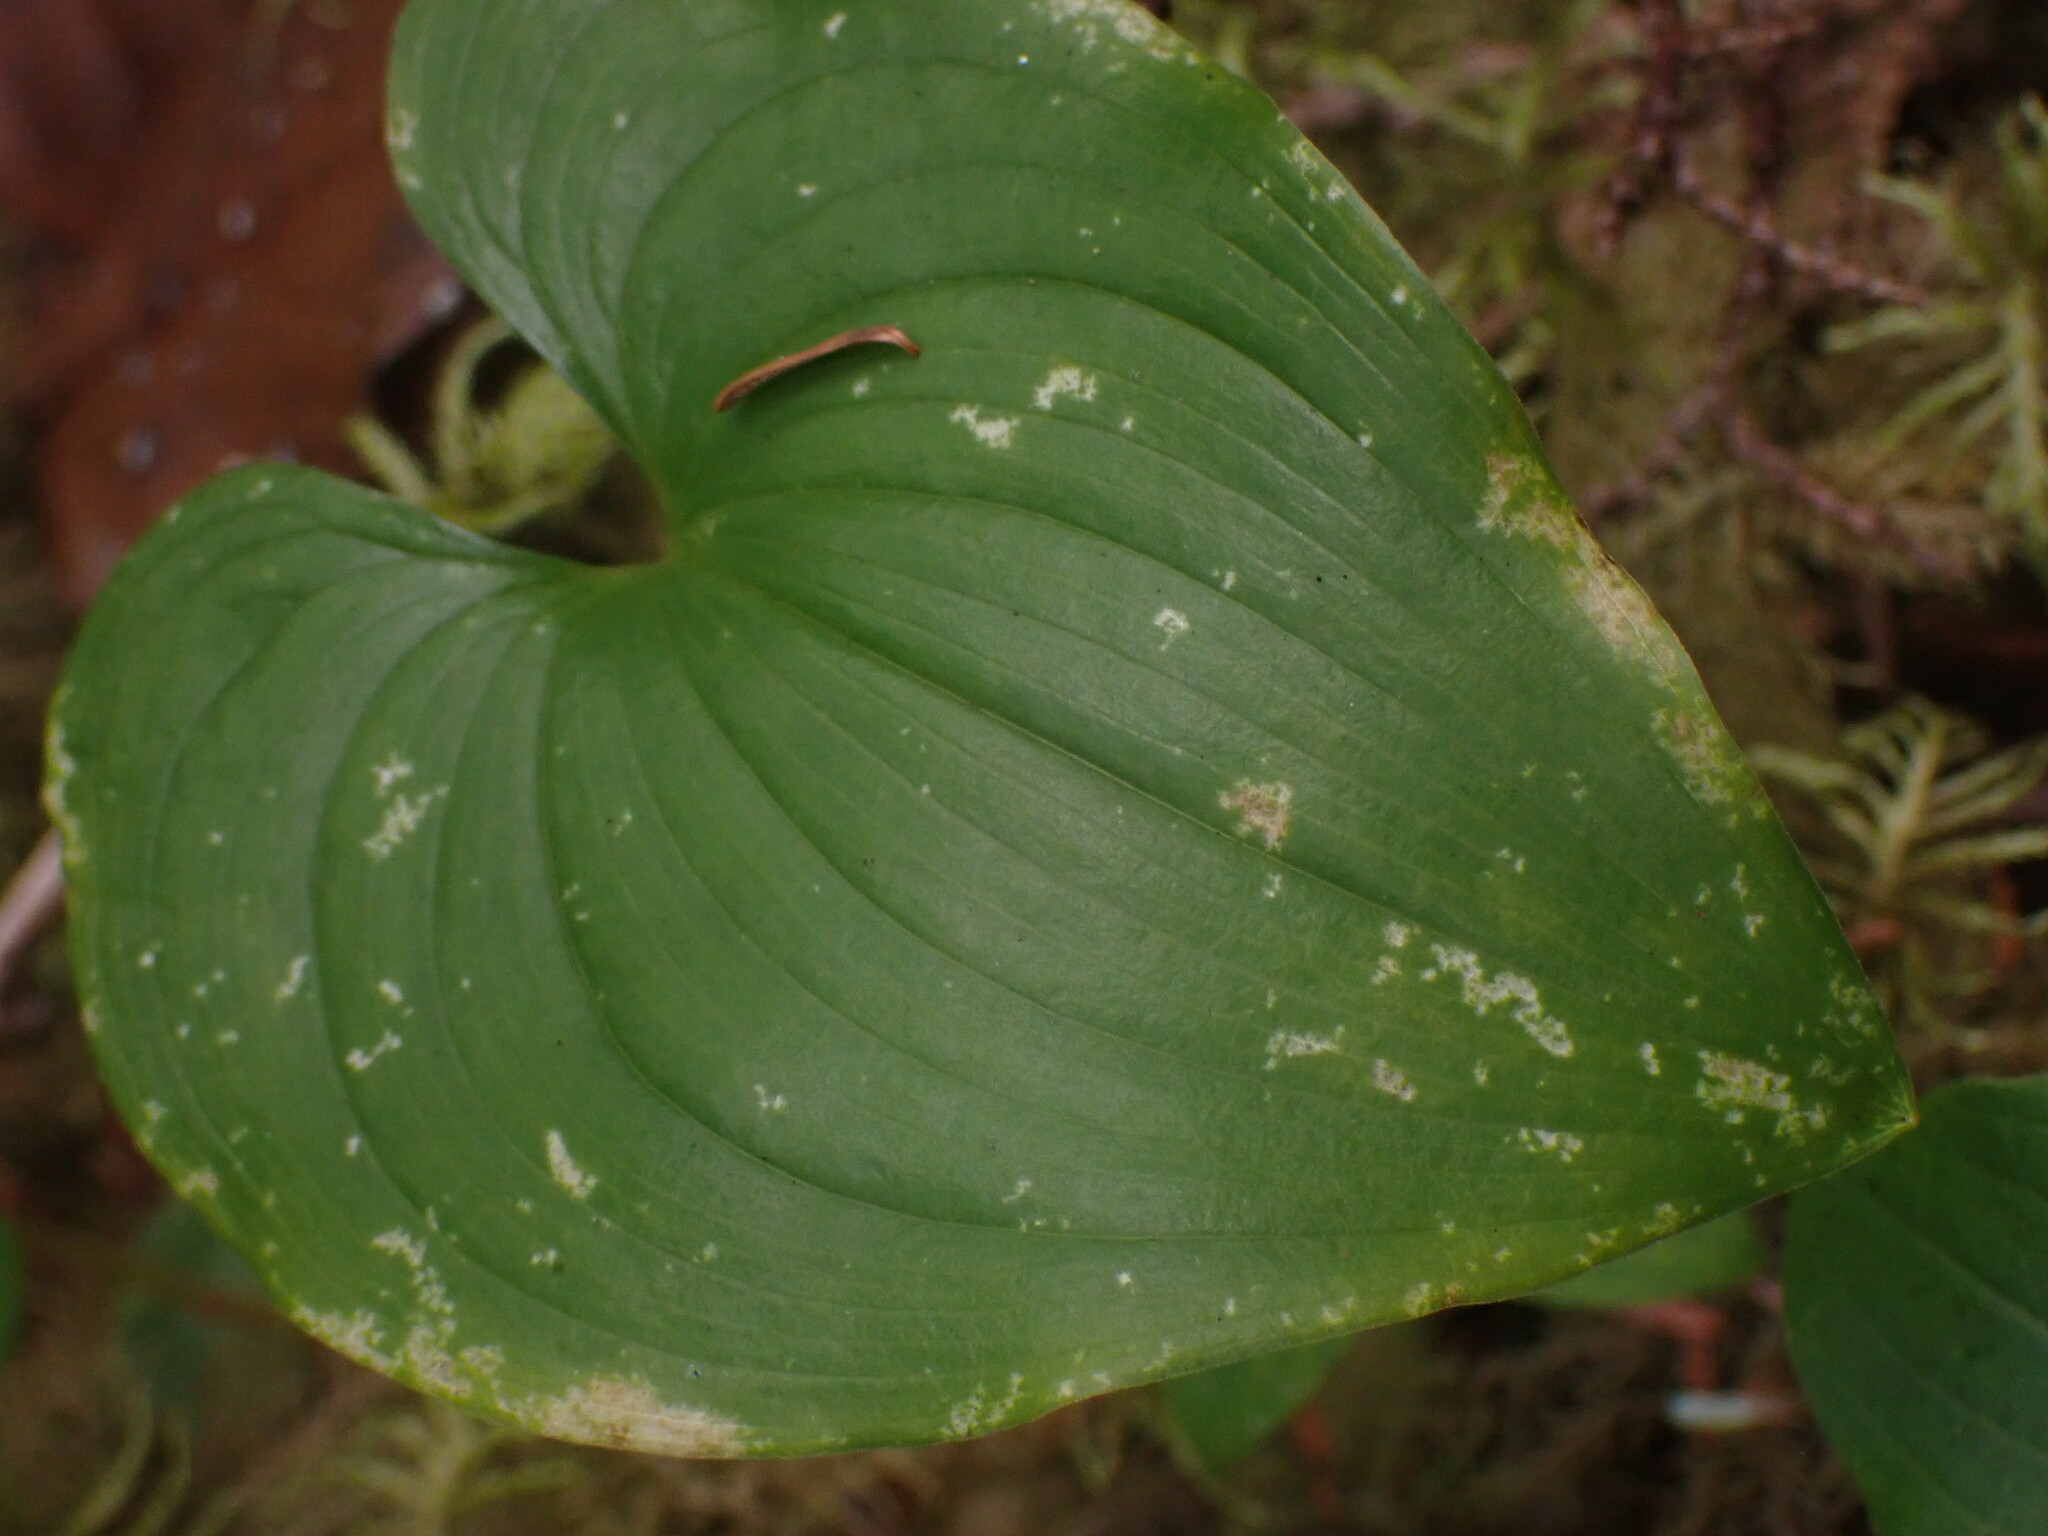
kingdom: Plantae
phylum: Tracheophyta
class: Liliopsida
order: Asparagales
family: Asparagaceae
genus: Maianthemum
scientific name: Maianthemum dilatatum
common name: False lily-of-the-valley
